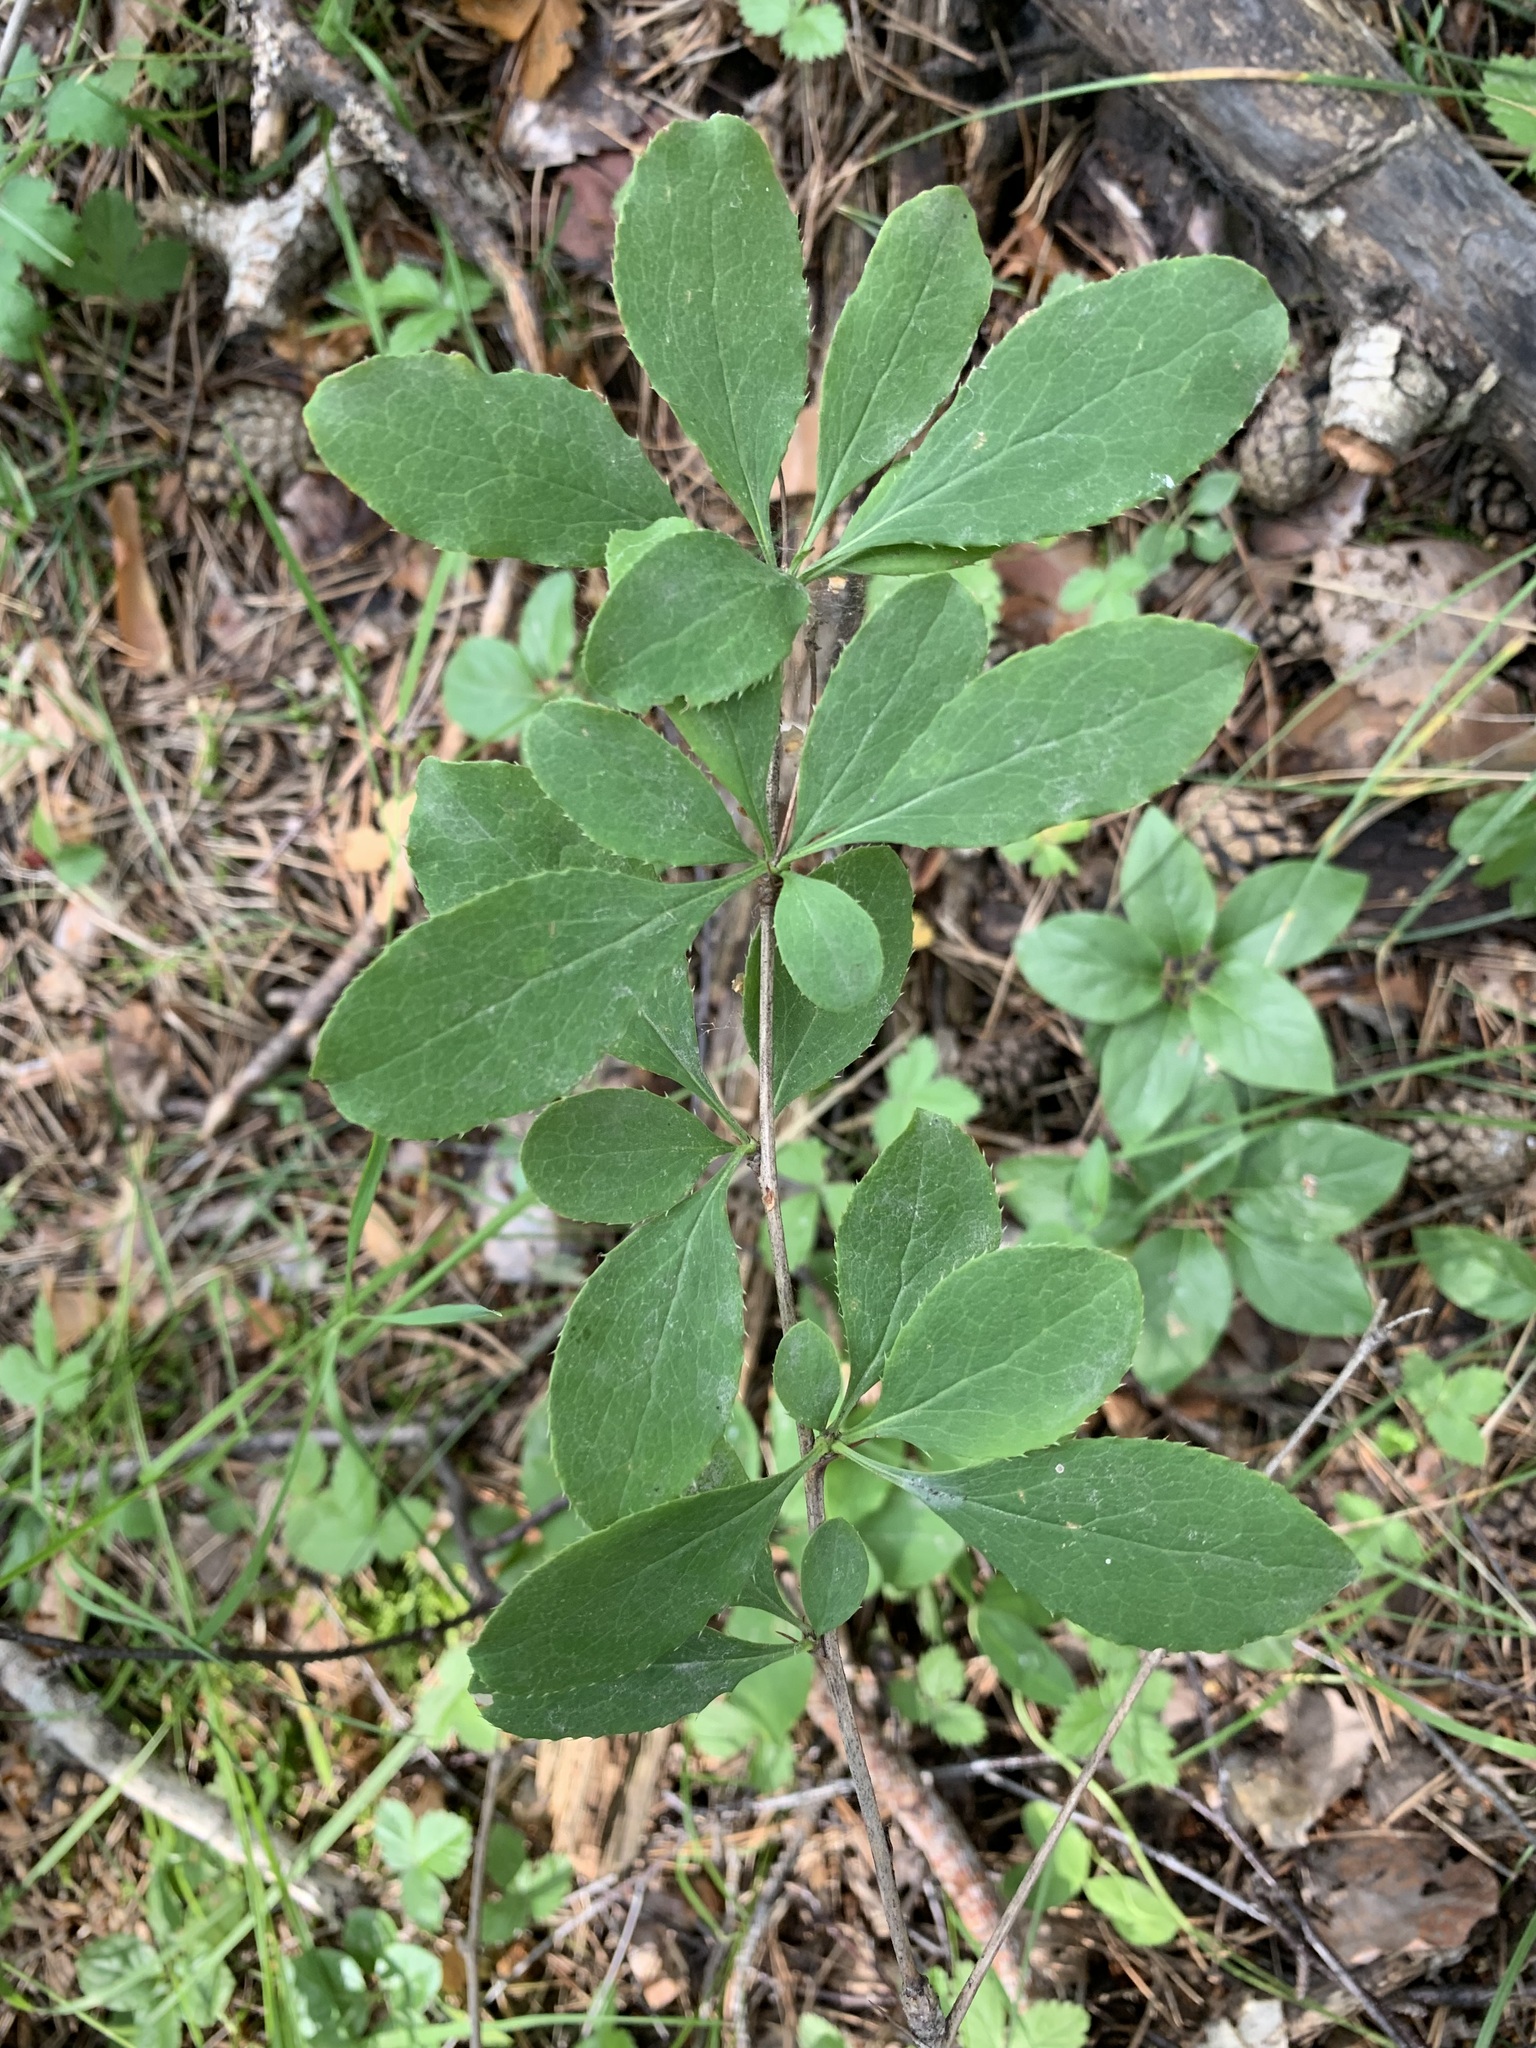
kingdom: Plantae
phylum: Tracheophyta
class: Magnoliopsida
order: Ranunculales
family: Berberidaceae
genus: Berberis
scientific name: Berberis vulgaris
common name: Barberry
